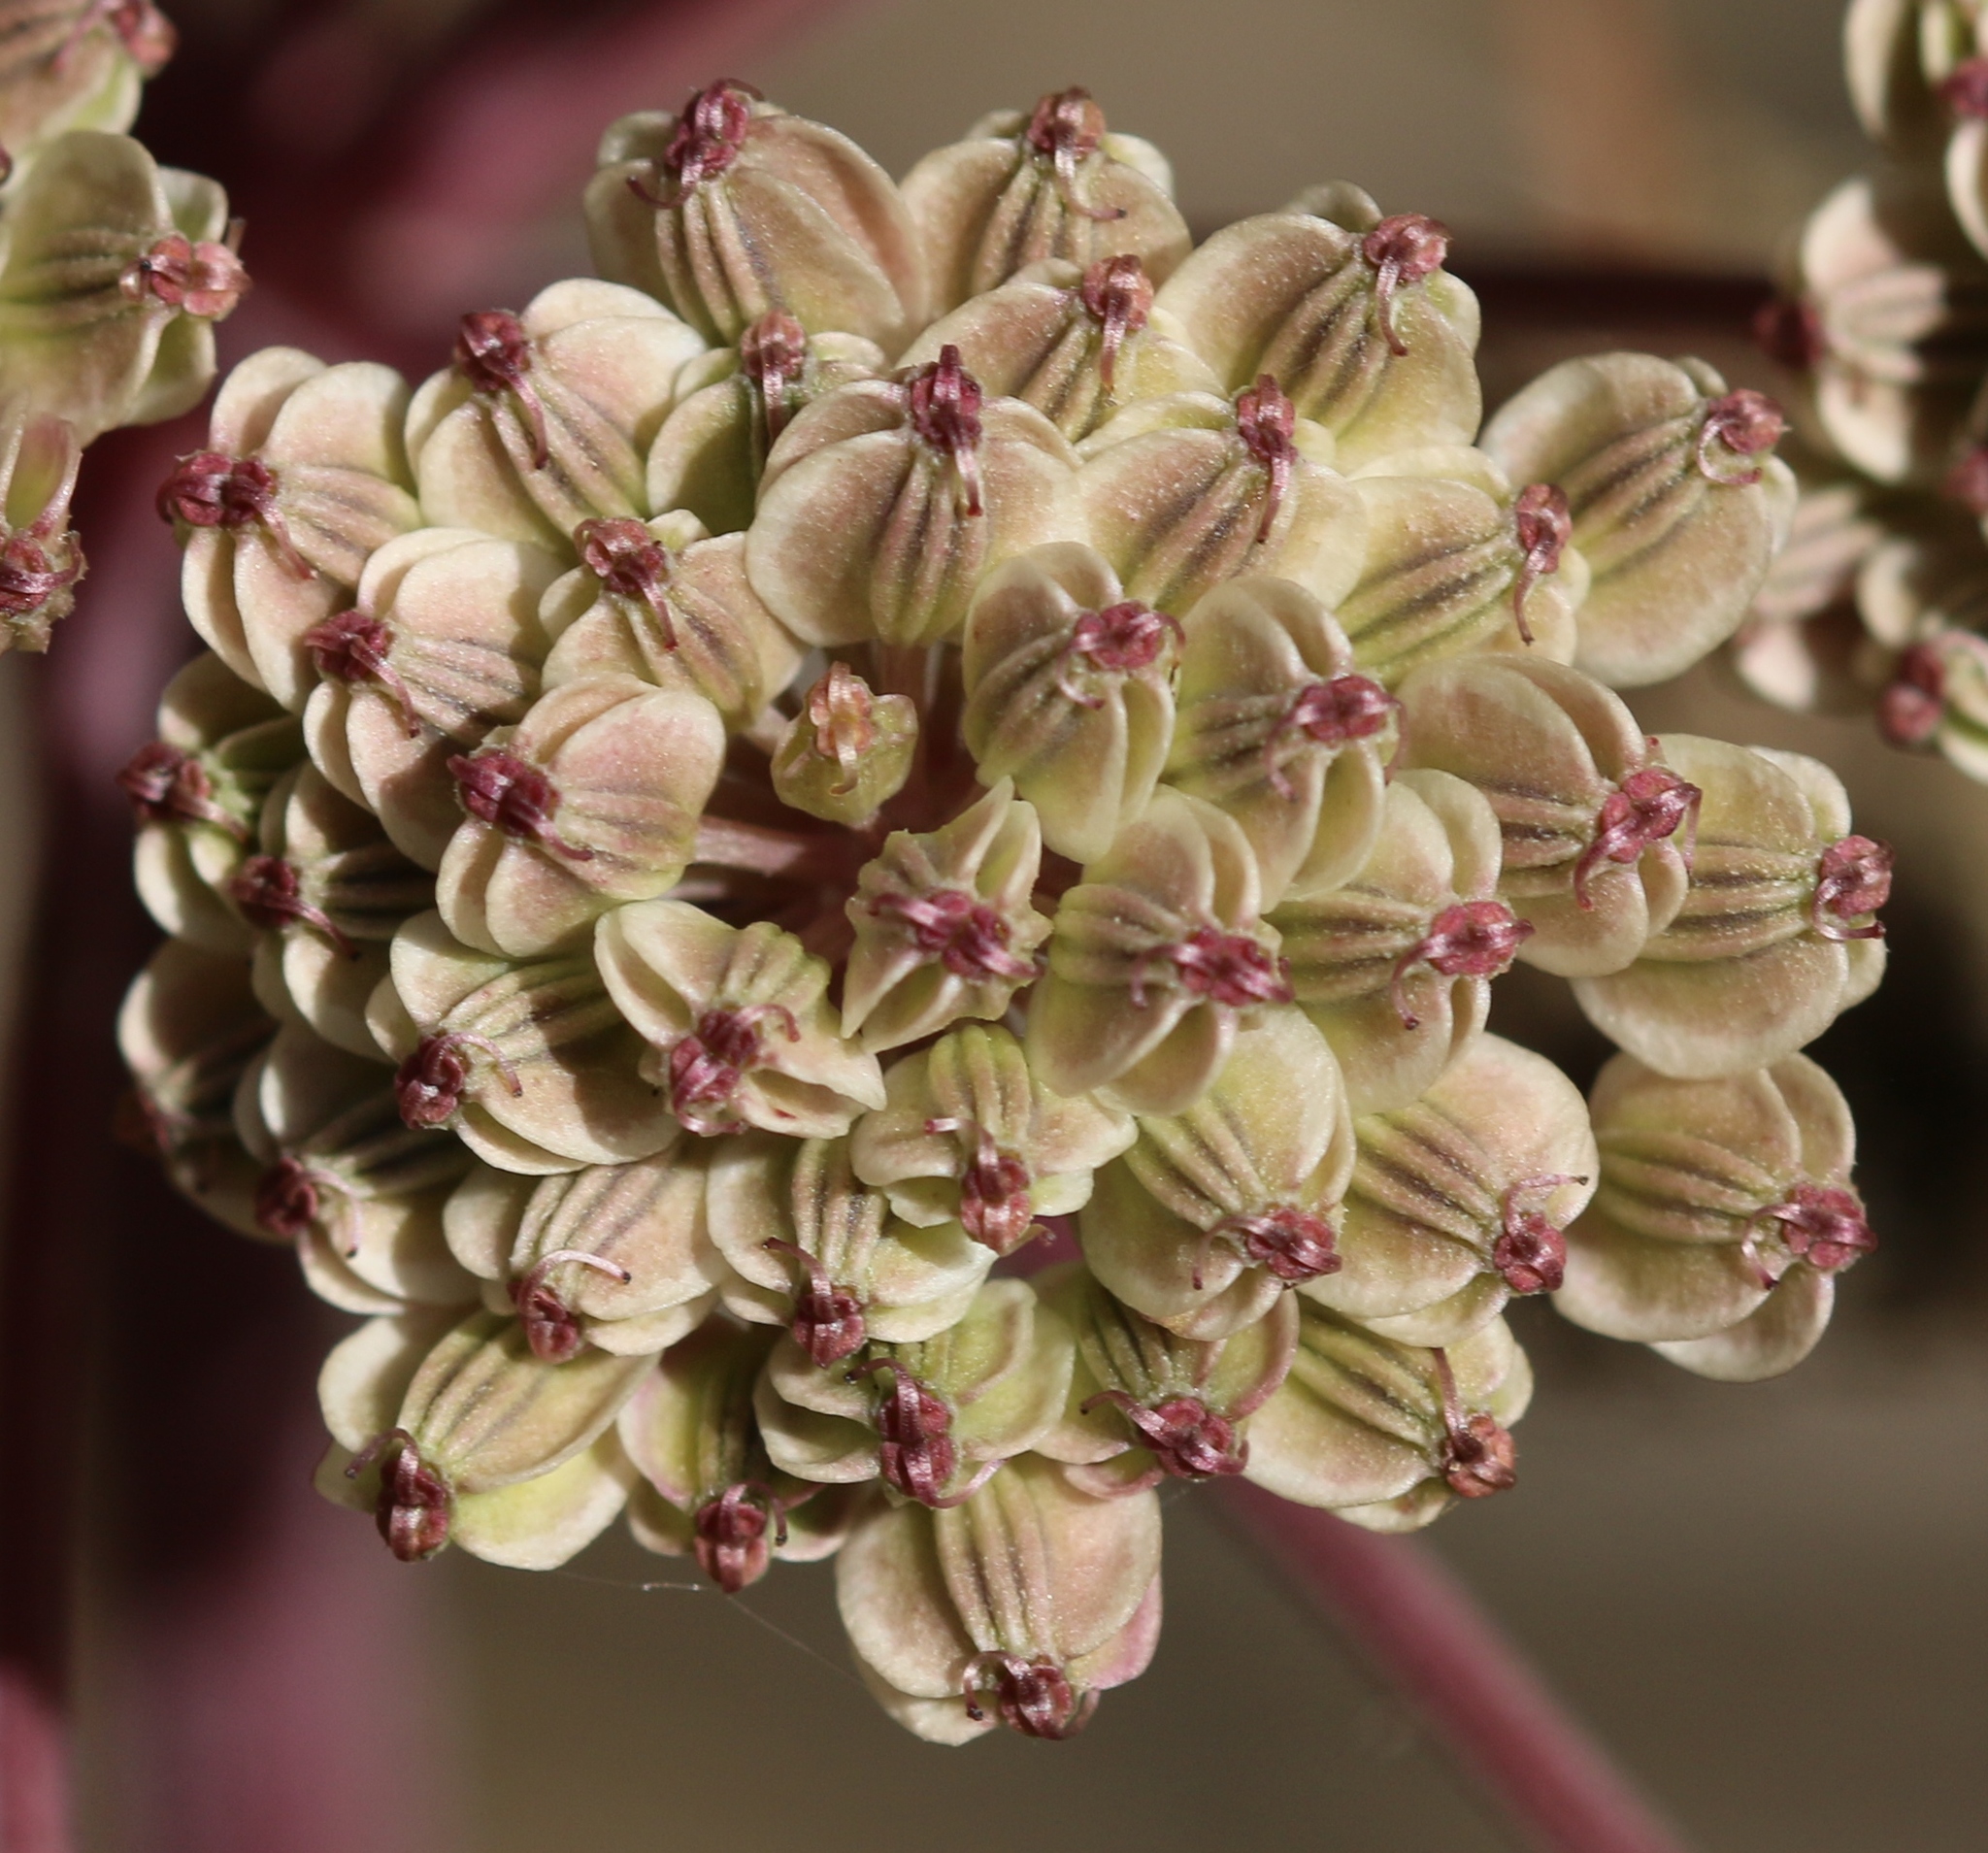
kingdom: Plantae
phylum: Tracheophyta
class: Magnoliopsida
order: Apiales
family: Apiaceae
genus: Angelica
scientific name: Angelica sylvestris
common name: Wild angelica
